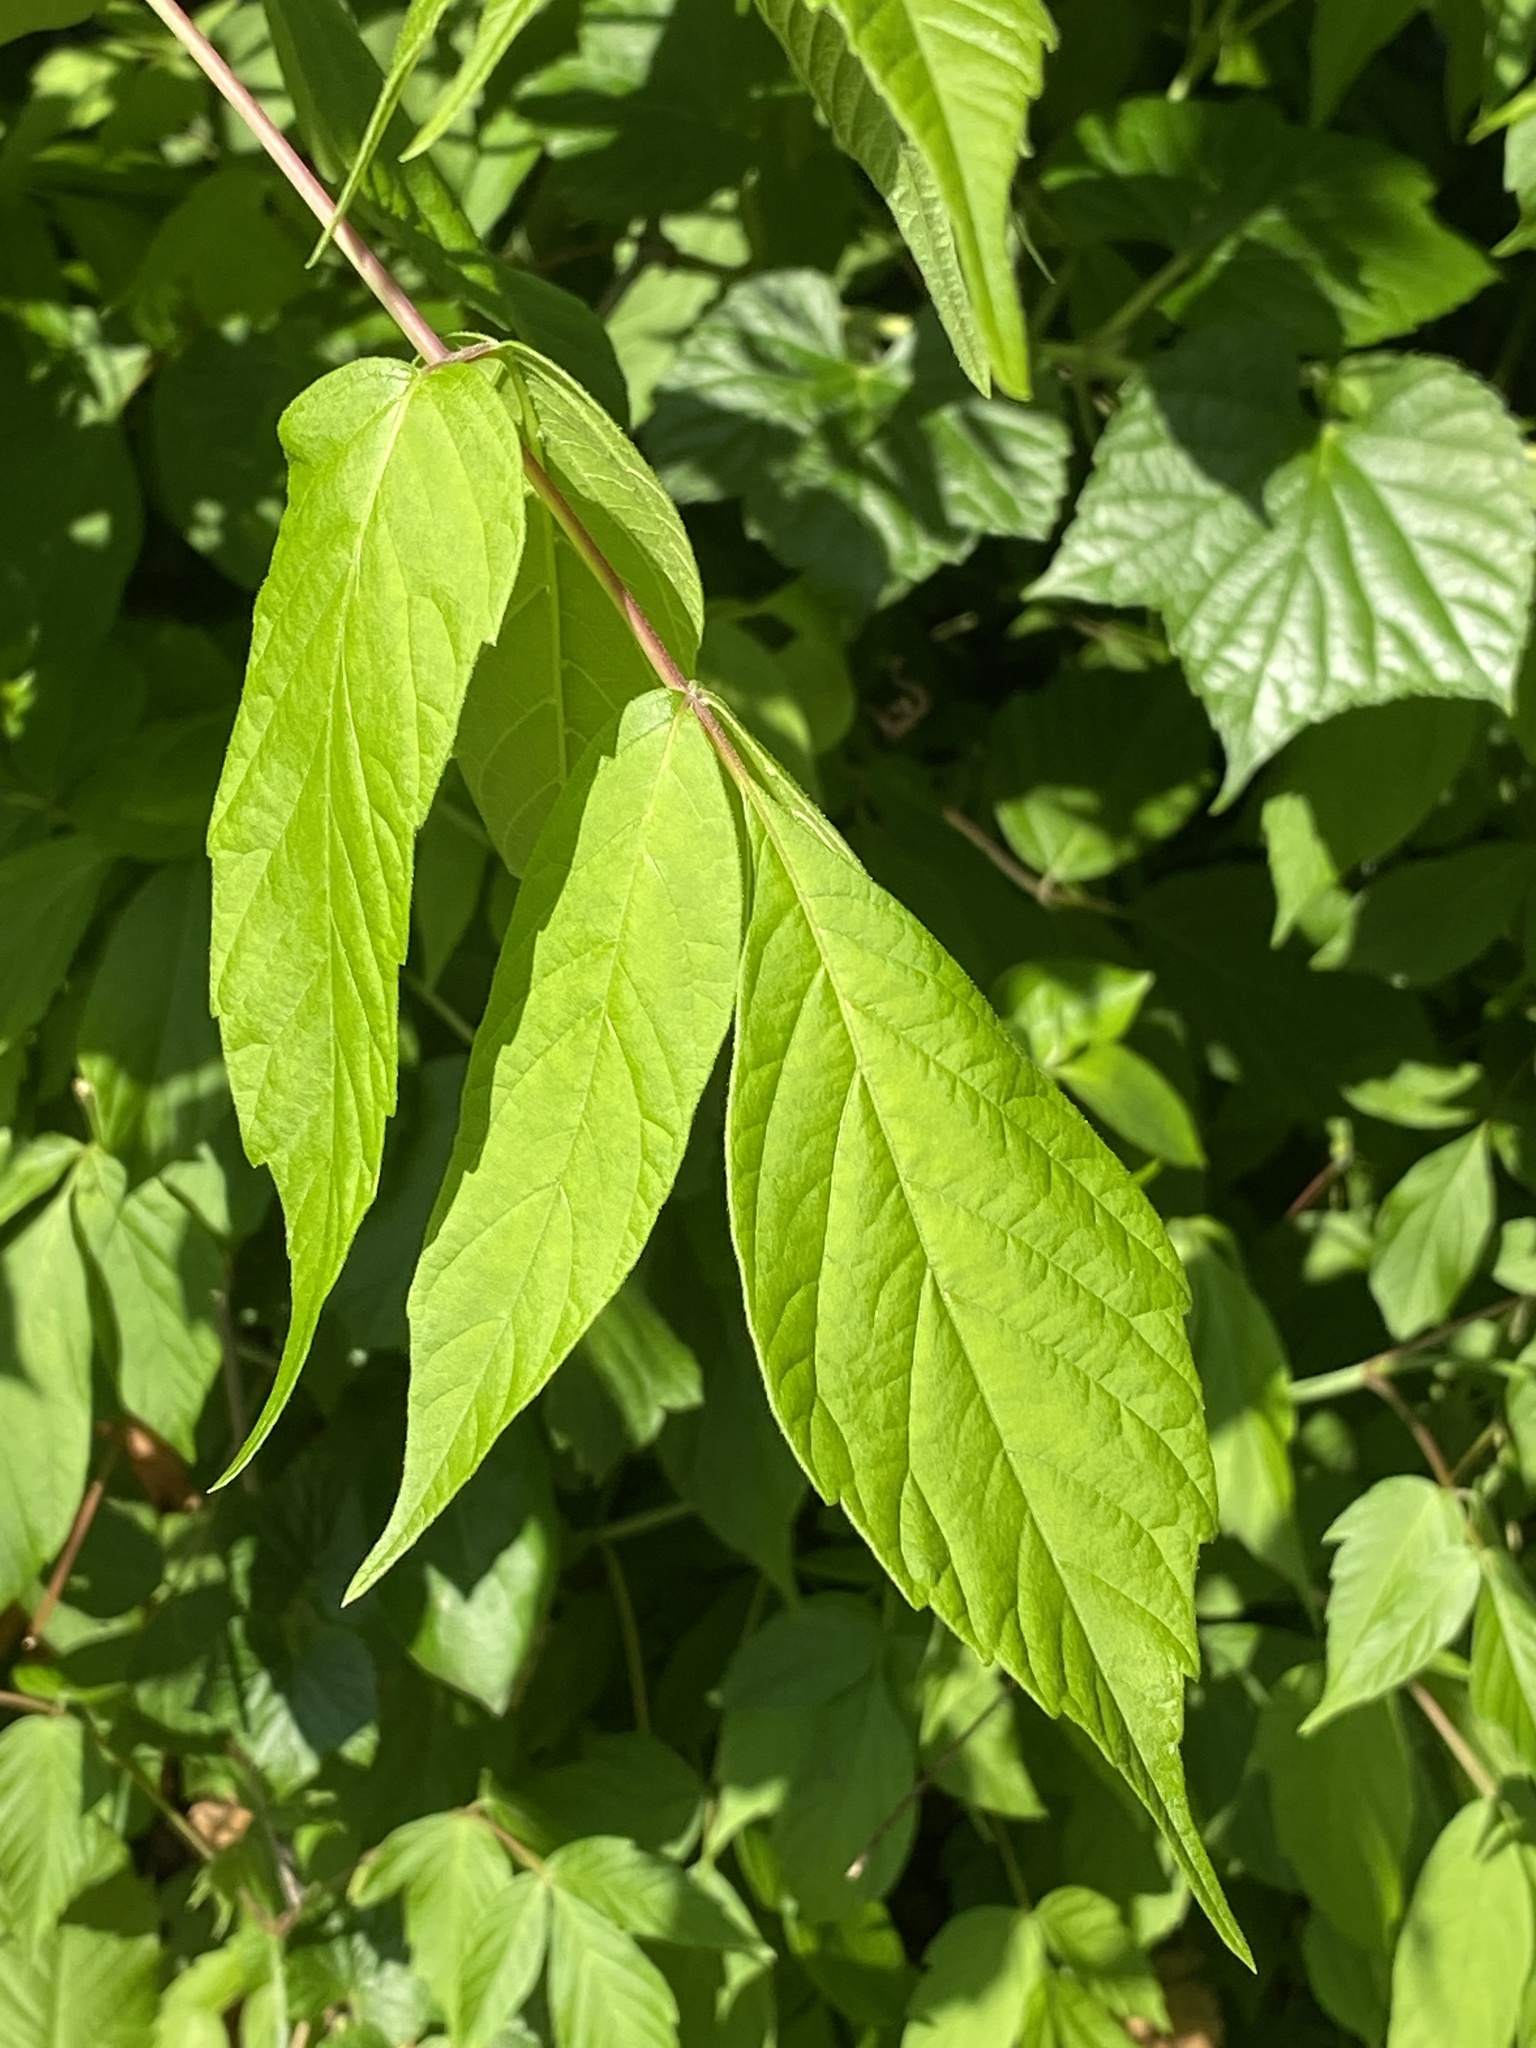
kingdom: Plantae
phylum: Tracheophyta
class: Magnoliopsida
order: Sapindales
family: Sapindaceae
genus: Acer
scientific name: Acer negundo
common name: Ashleaf maple
